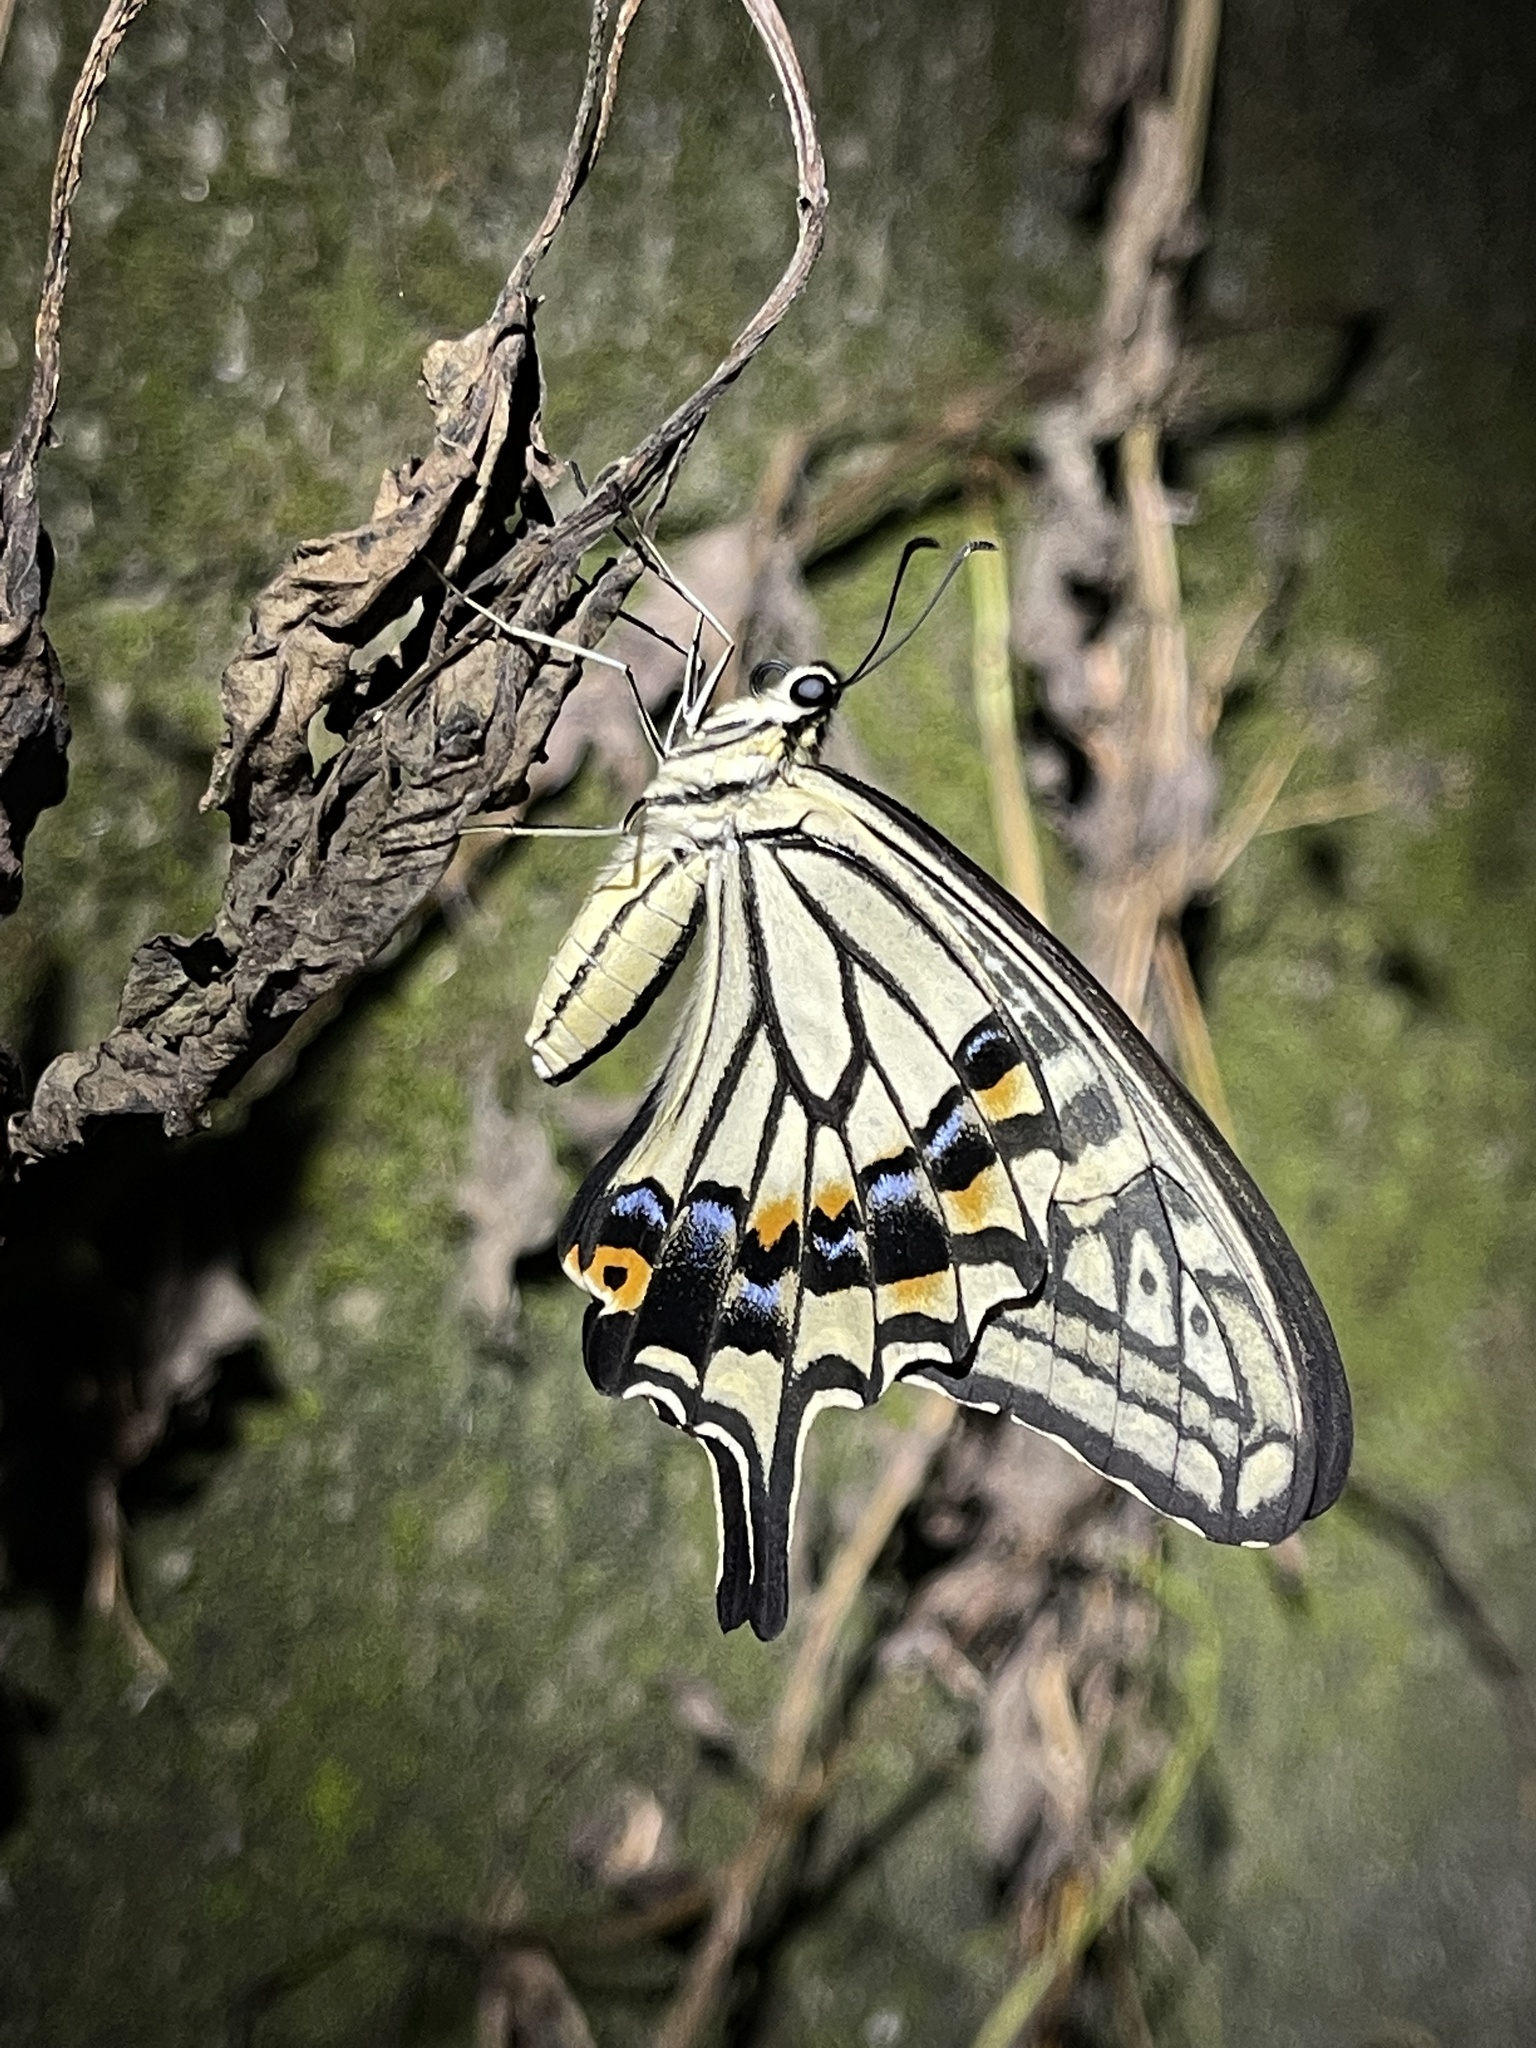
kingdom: Animalia
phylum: Arthropoda
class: Insecta
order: Lepidoptera
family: Papilionidae
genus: Papilio
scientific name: Papilio xuthus
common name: Asian swallowtail
